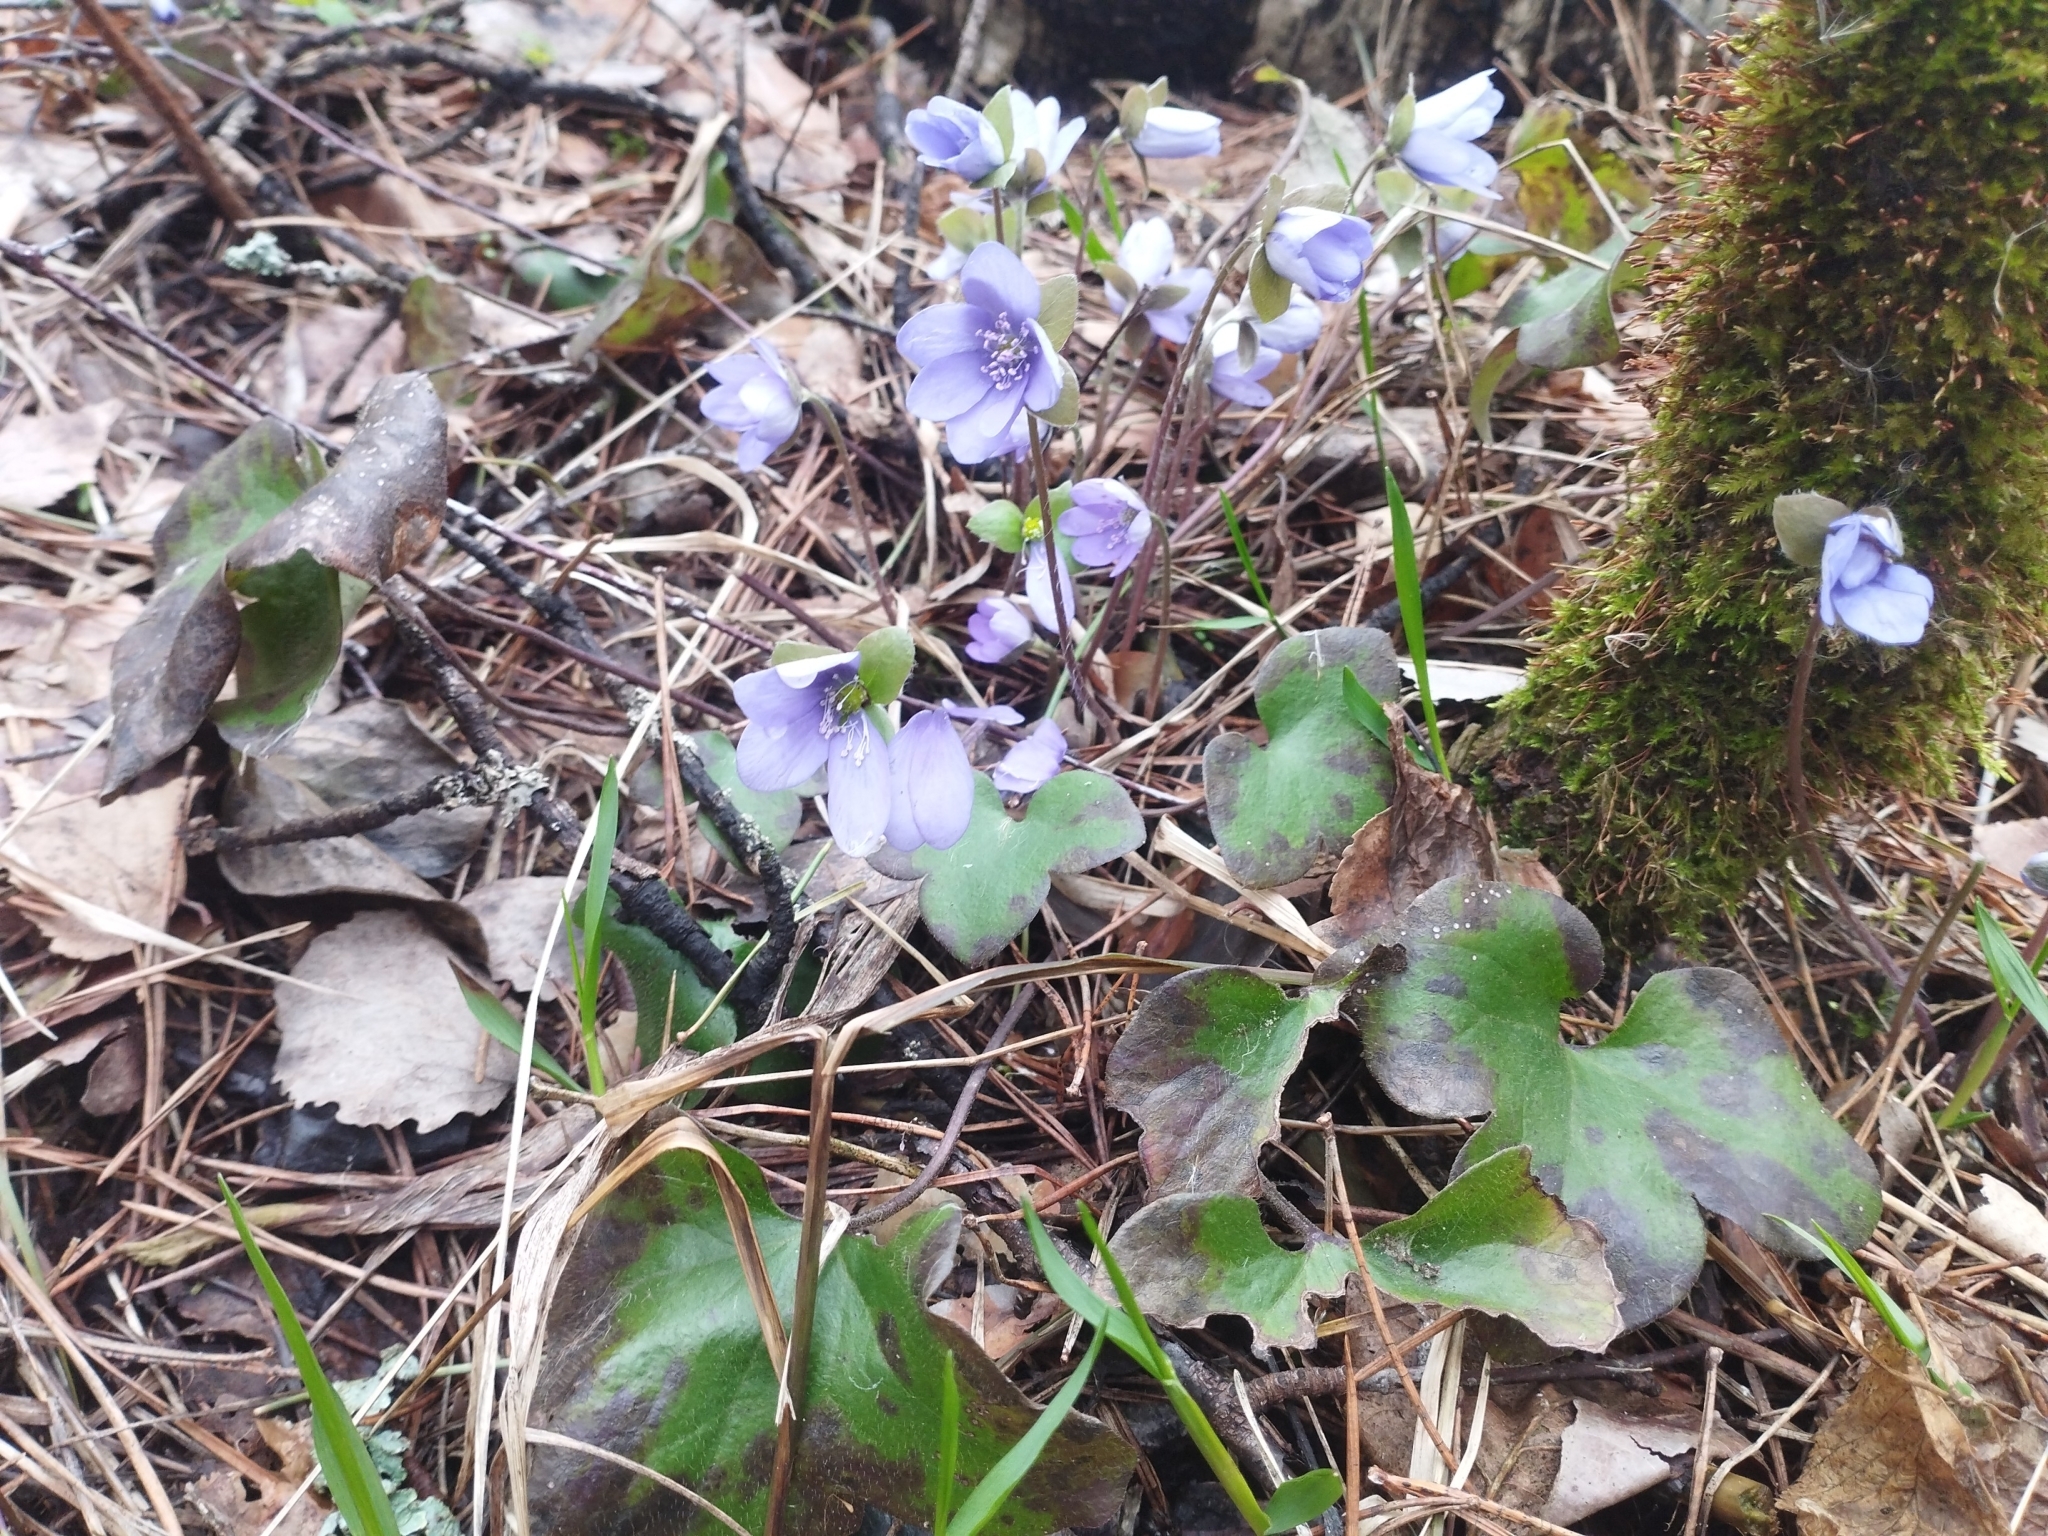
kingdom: Plantae
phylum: Tracheophyta
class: Magnoliopsida
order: Ranunculales
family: Ranunculaceae
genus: Hepatica
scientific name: Hepatica nobilis
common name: Liverleaf
